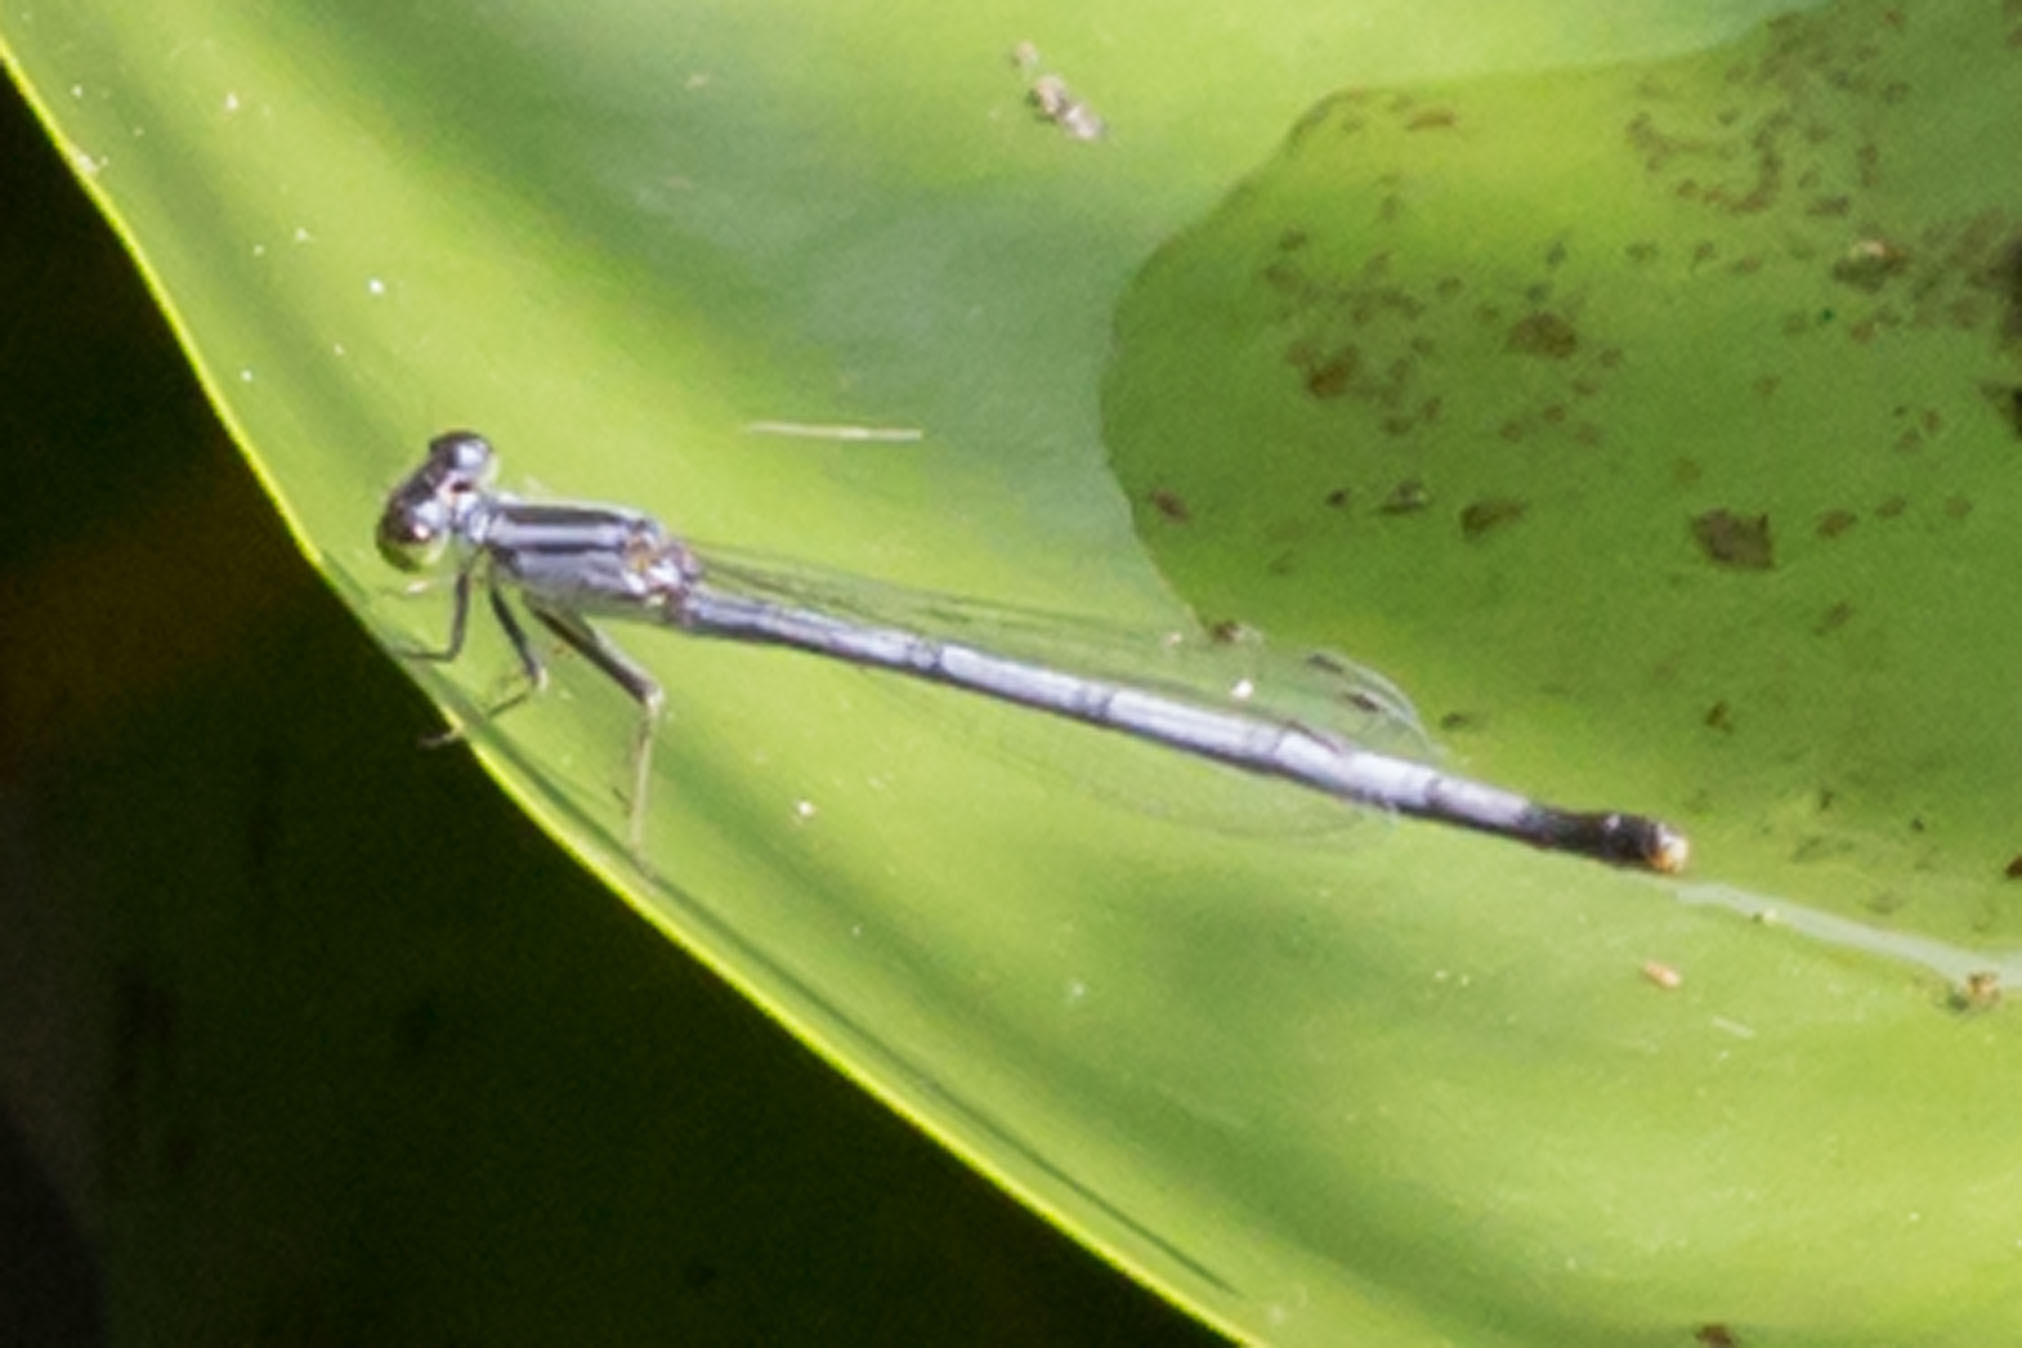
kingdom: Animalia
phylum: Arthropoda
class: Insecta
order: Odonata
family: Coenagrionidae
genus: Ischnura
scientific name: Ischnura verticalis
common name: Eastern forktail
